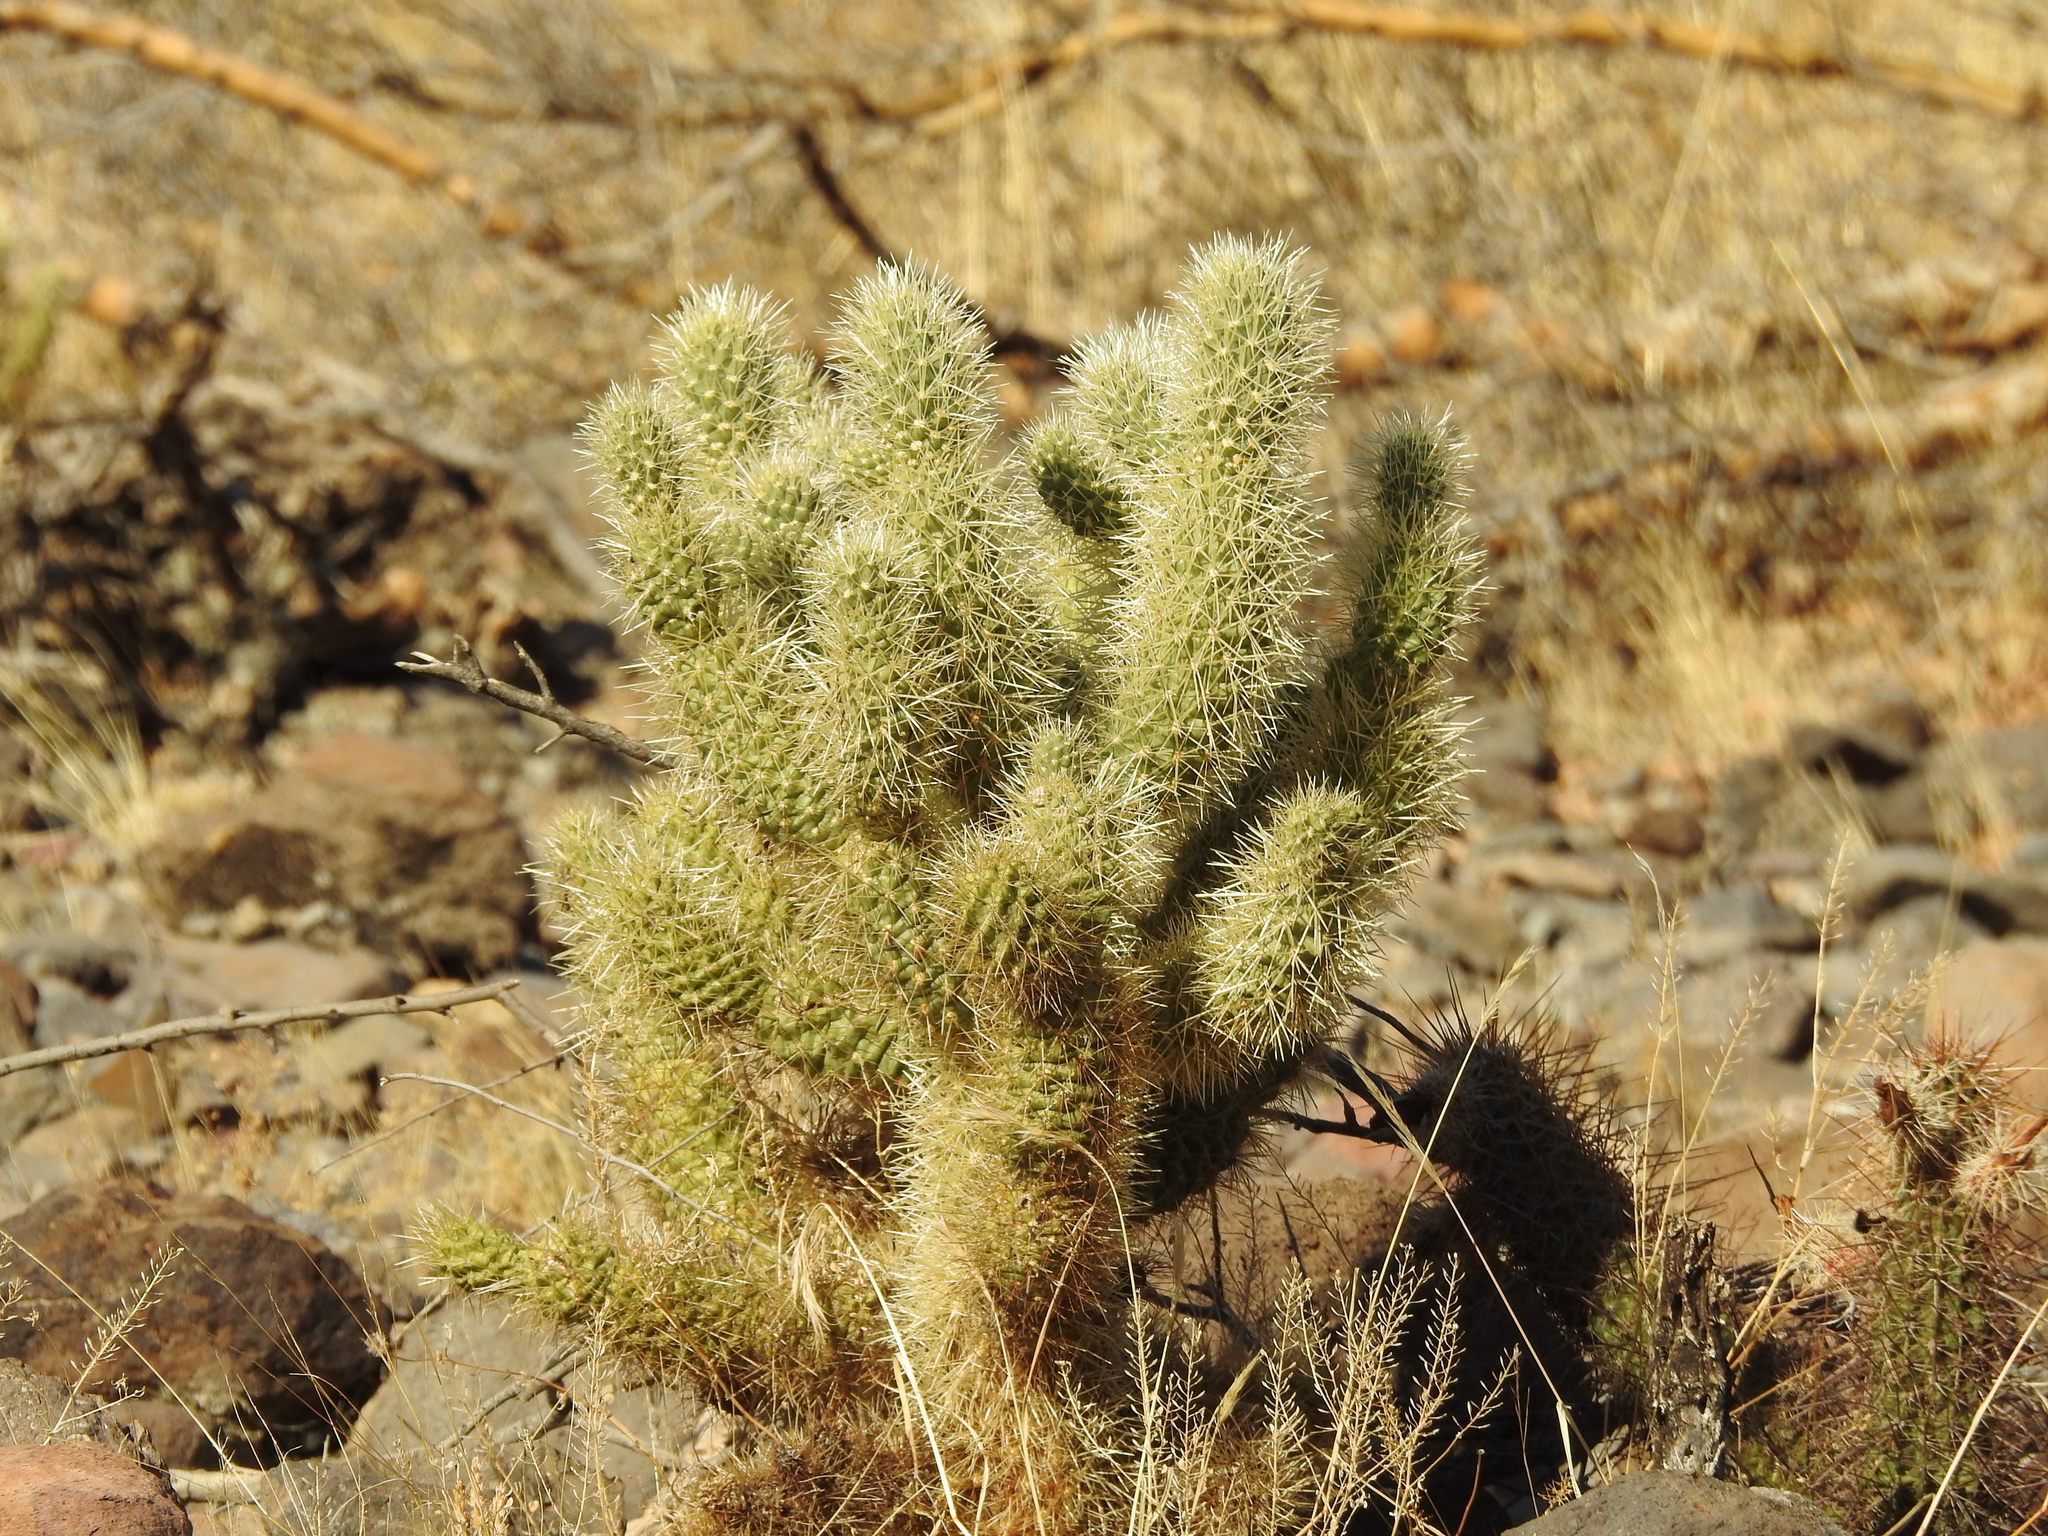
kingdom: Plantae
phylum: Tracheophyta
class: Magnoliopsida
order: Caryophyllales
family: Cactaceae
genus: Cylindropuntia
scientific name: Cylindropuntia fosbergii
